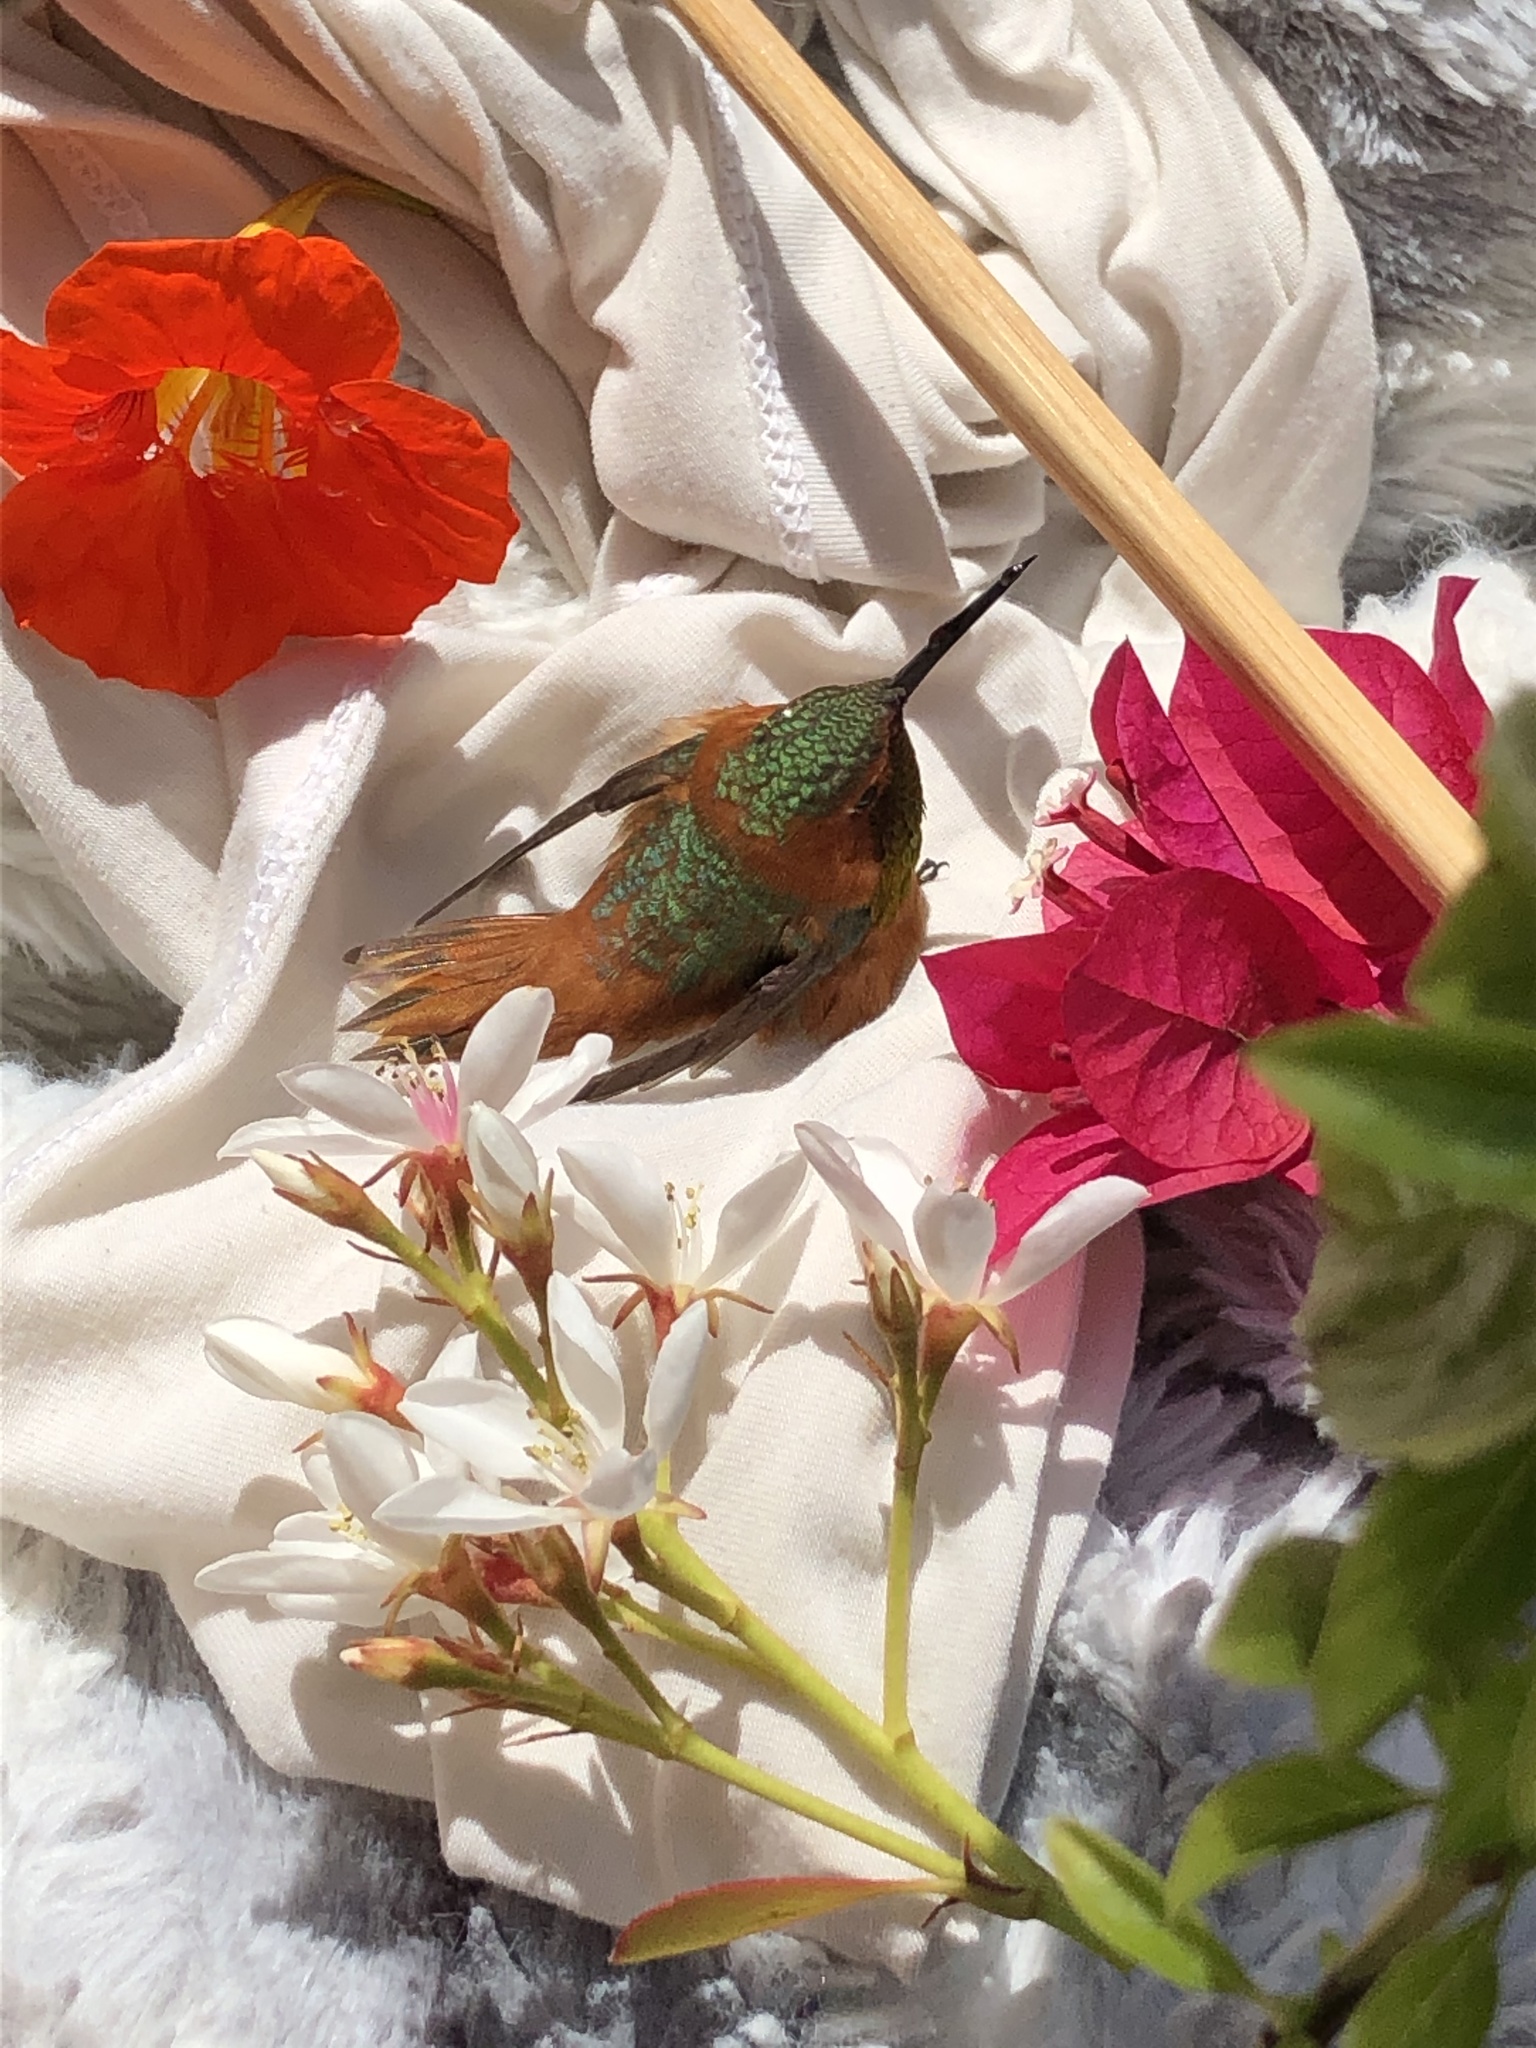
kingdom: Animalia
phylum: Chordata
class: Aves
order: Apodiformes
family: Trochilidae
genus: Selasphorus
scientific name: Selasphorus sasin
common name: Allen's hummingbird
